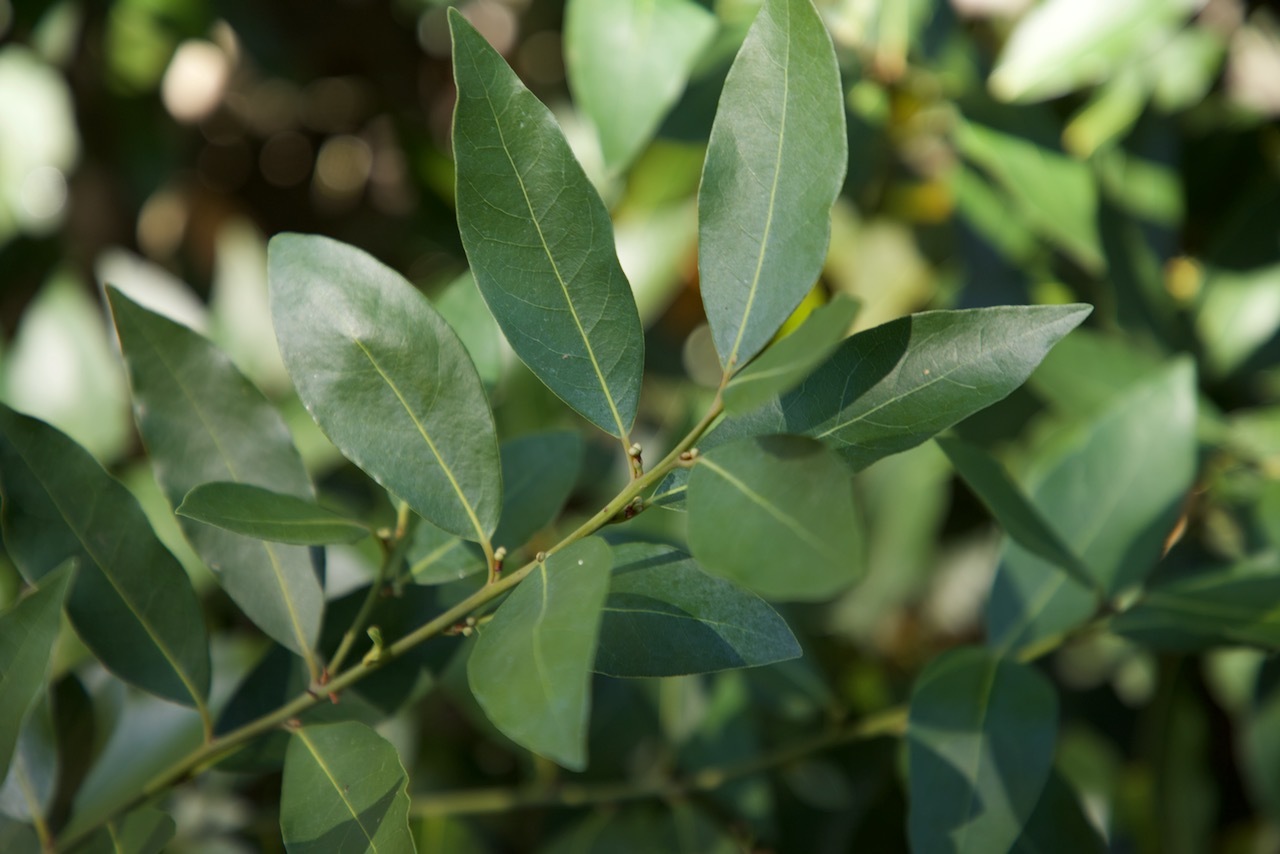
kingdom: Plantae
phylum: Tracheophyta
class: Magnoliopsida
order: Laurales
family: Lauraceae
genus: Umbellularia
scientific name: Umbellularia californica
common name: California bay
